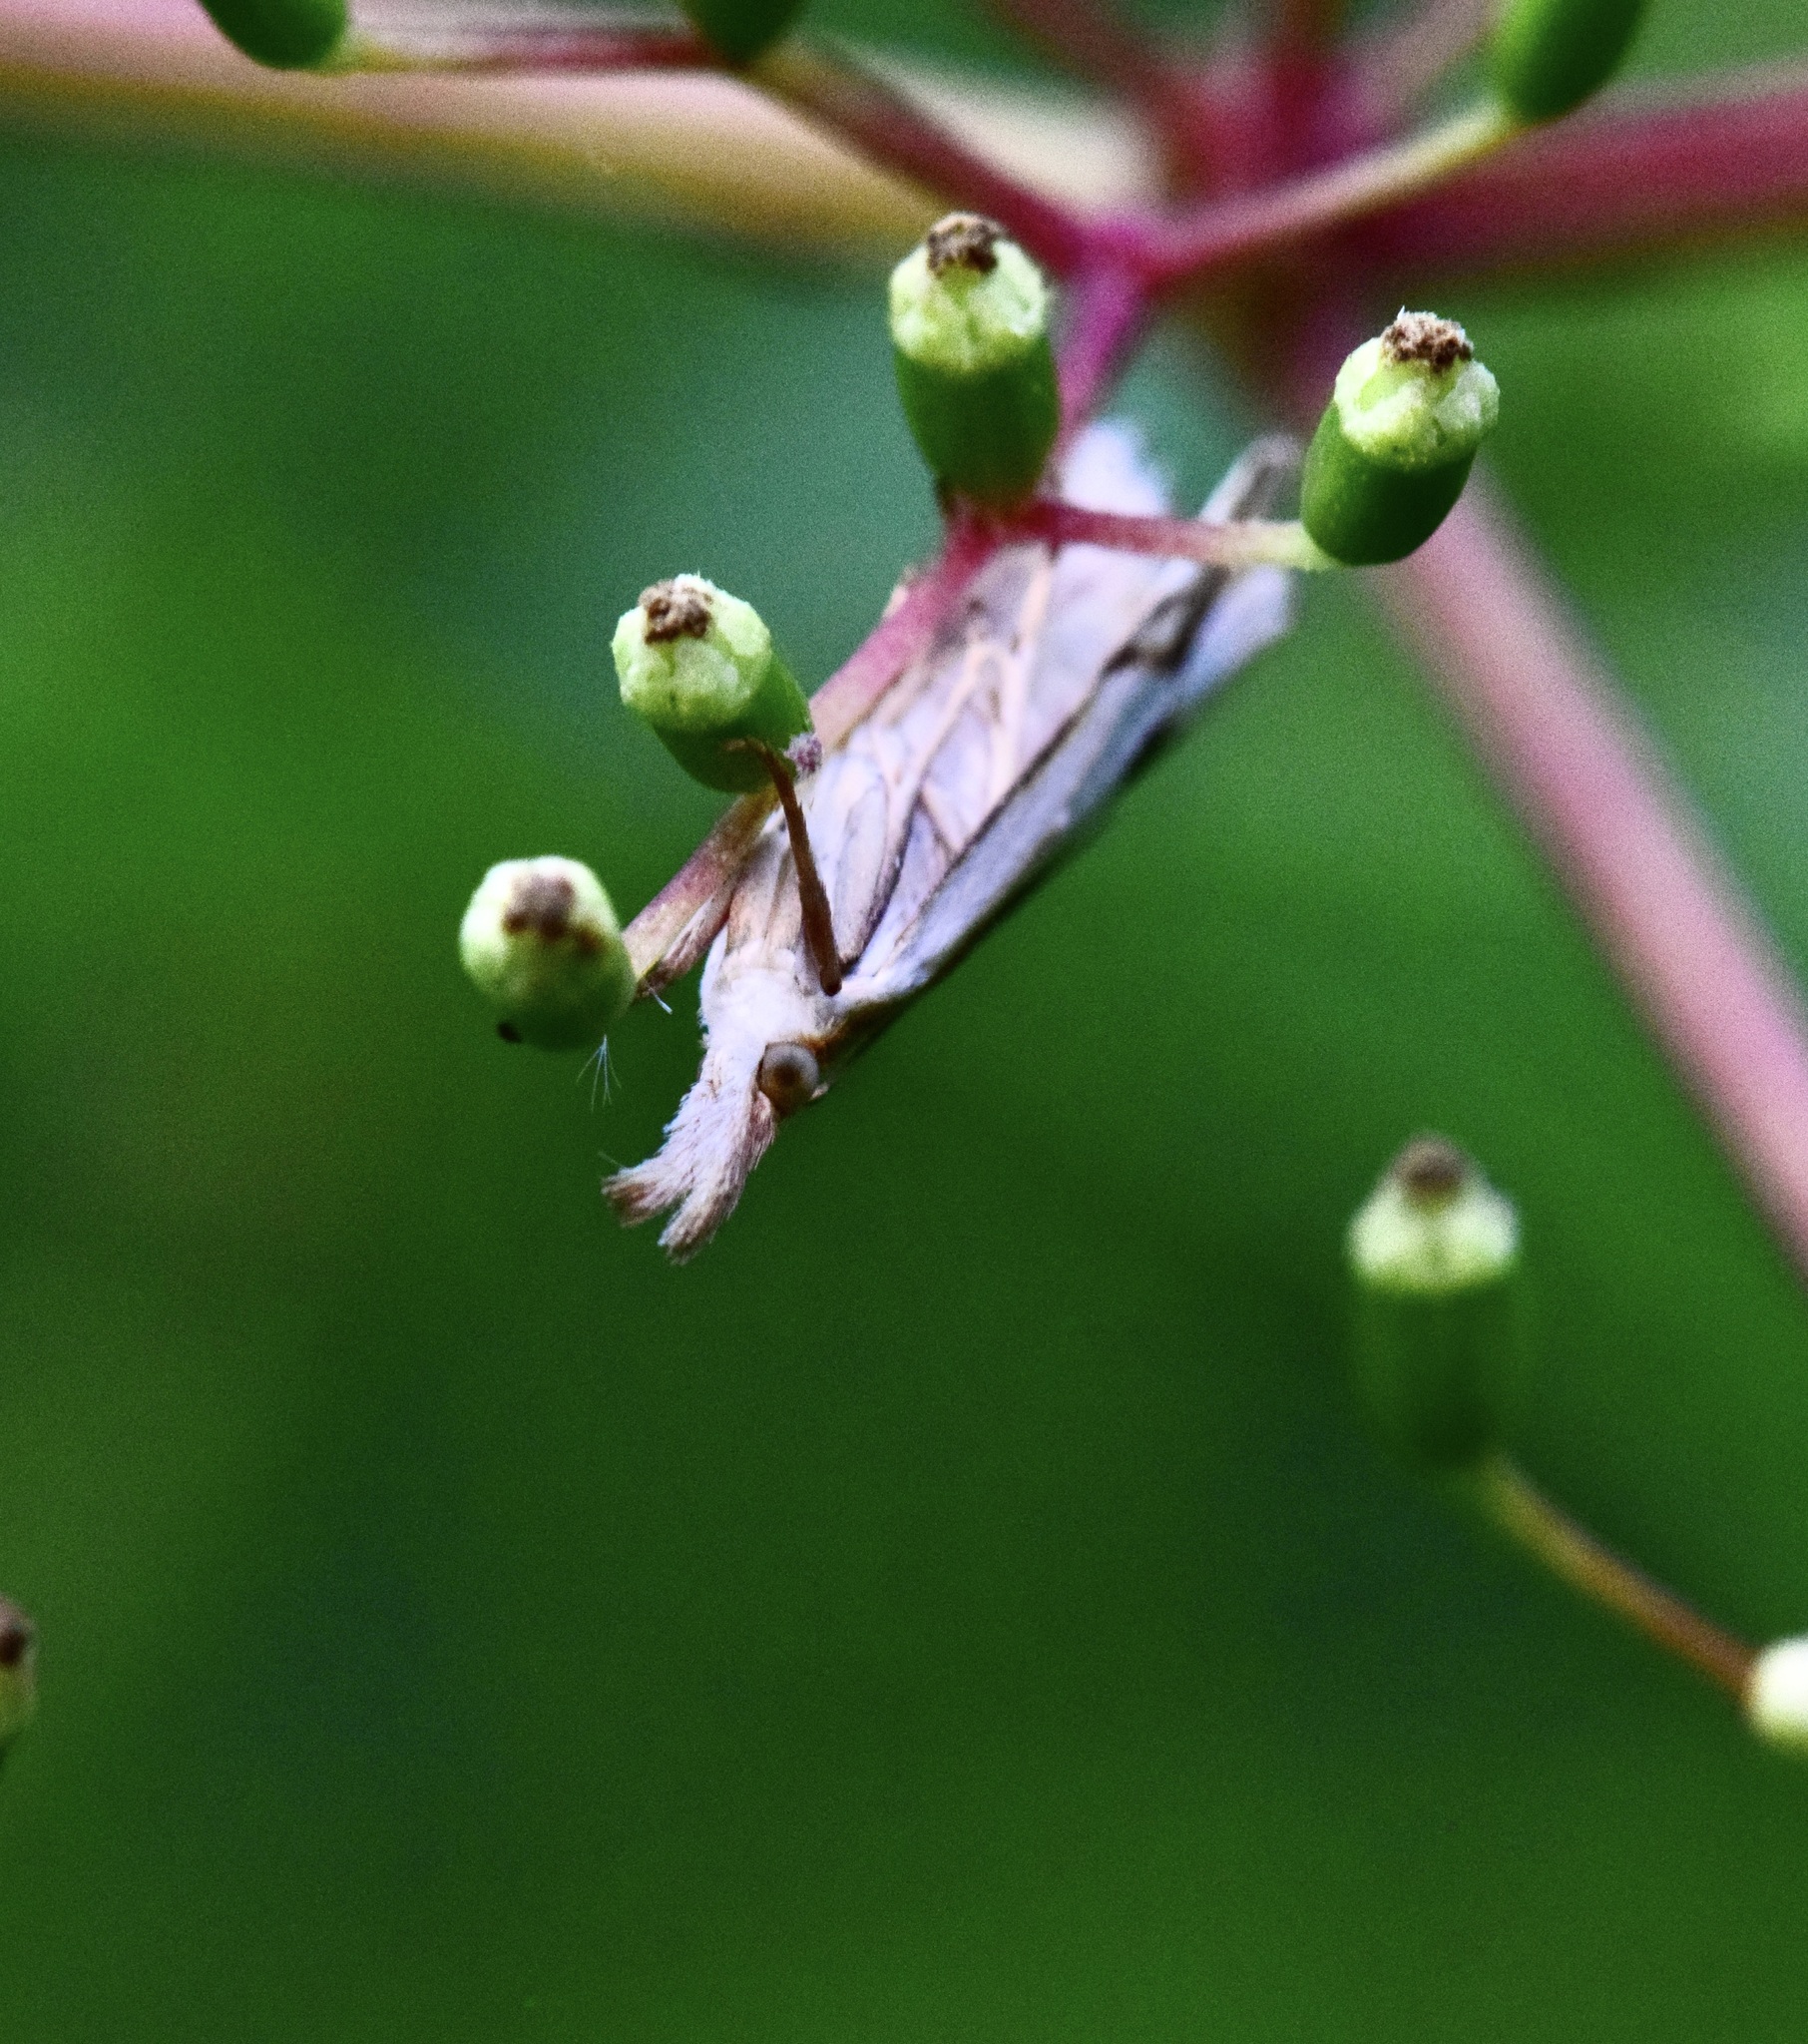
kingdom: Animalia
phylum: Arthropoda
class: Insecta
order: Lepidoptera
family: Crambidae
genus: Crambus
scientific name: Crambus
